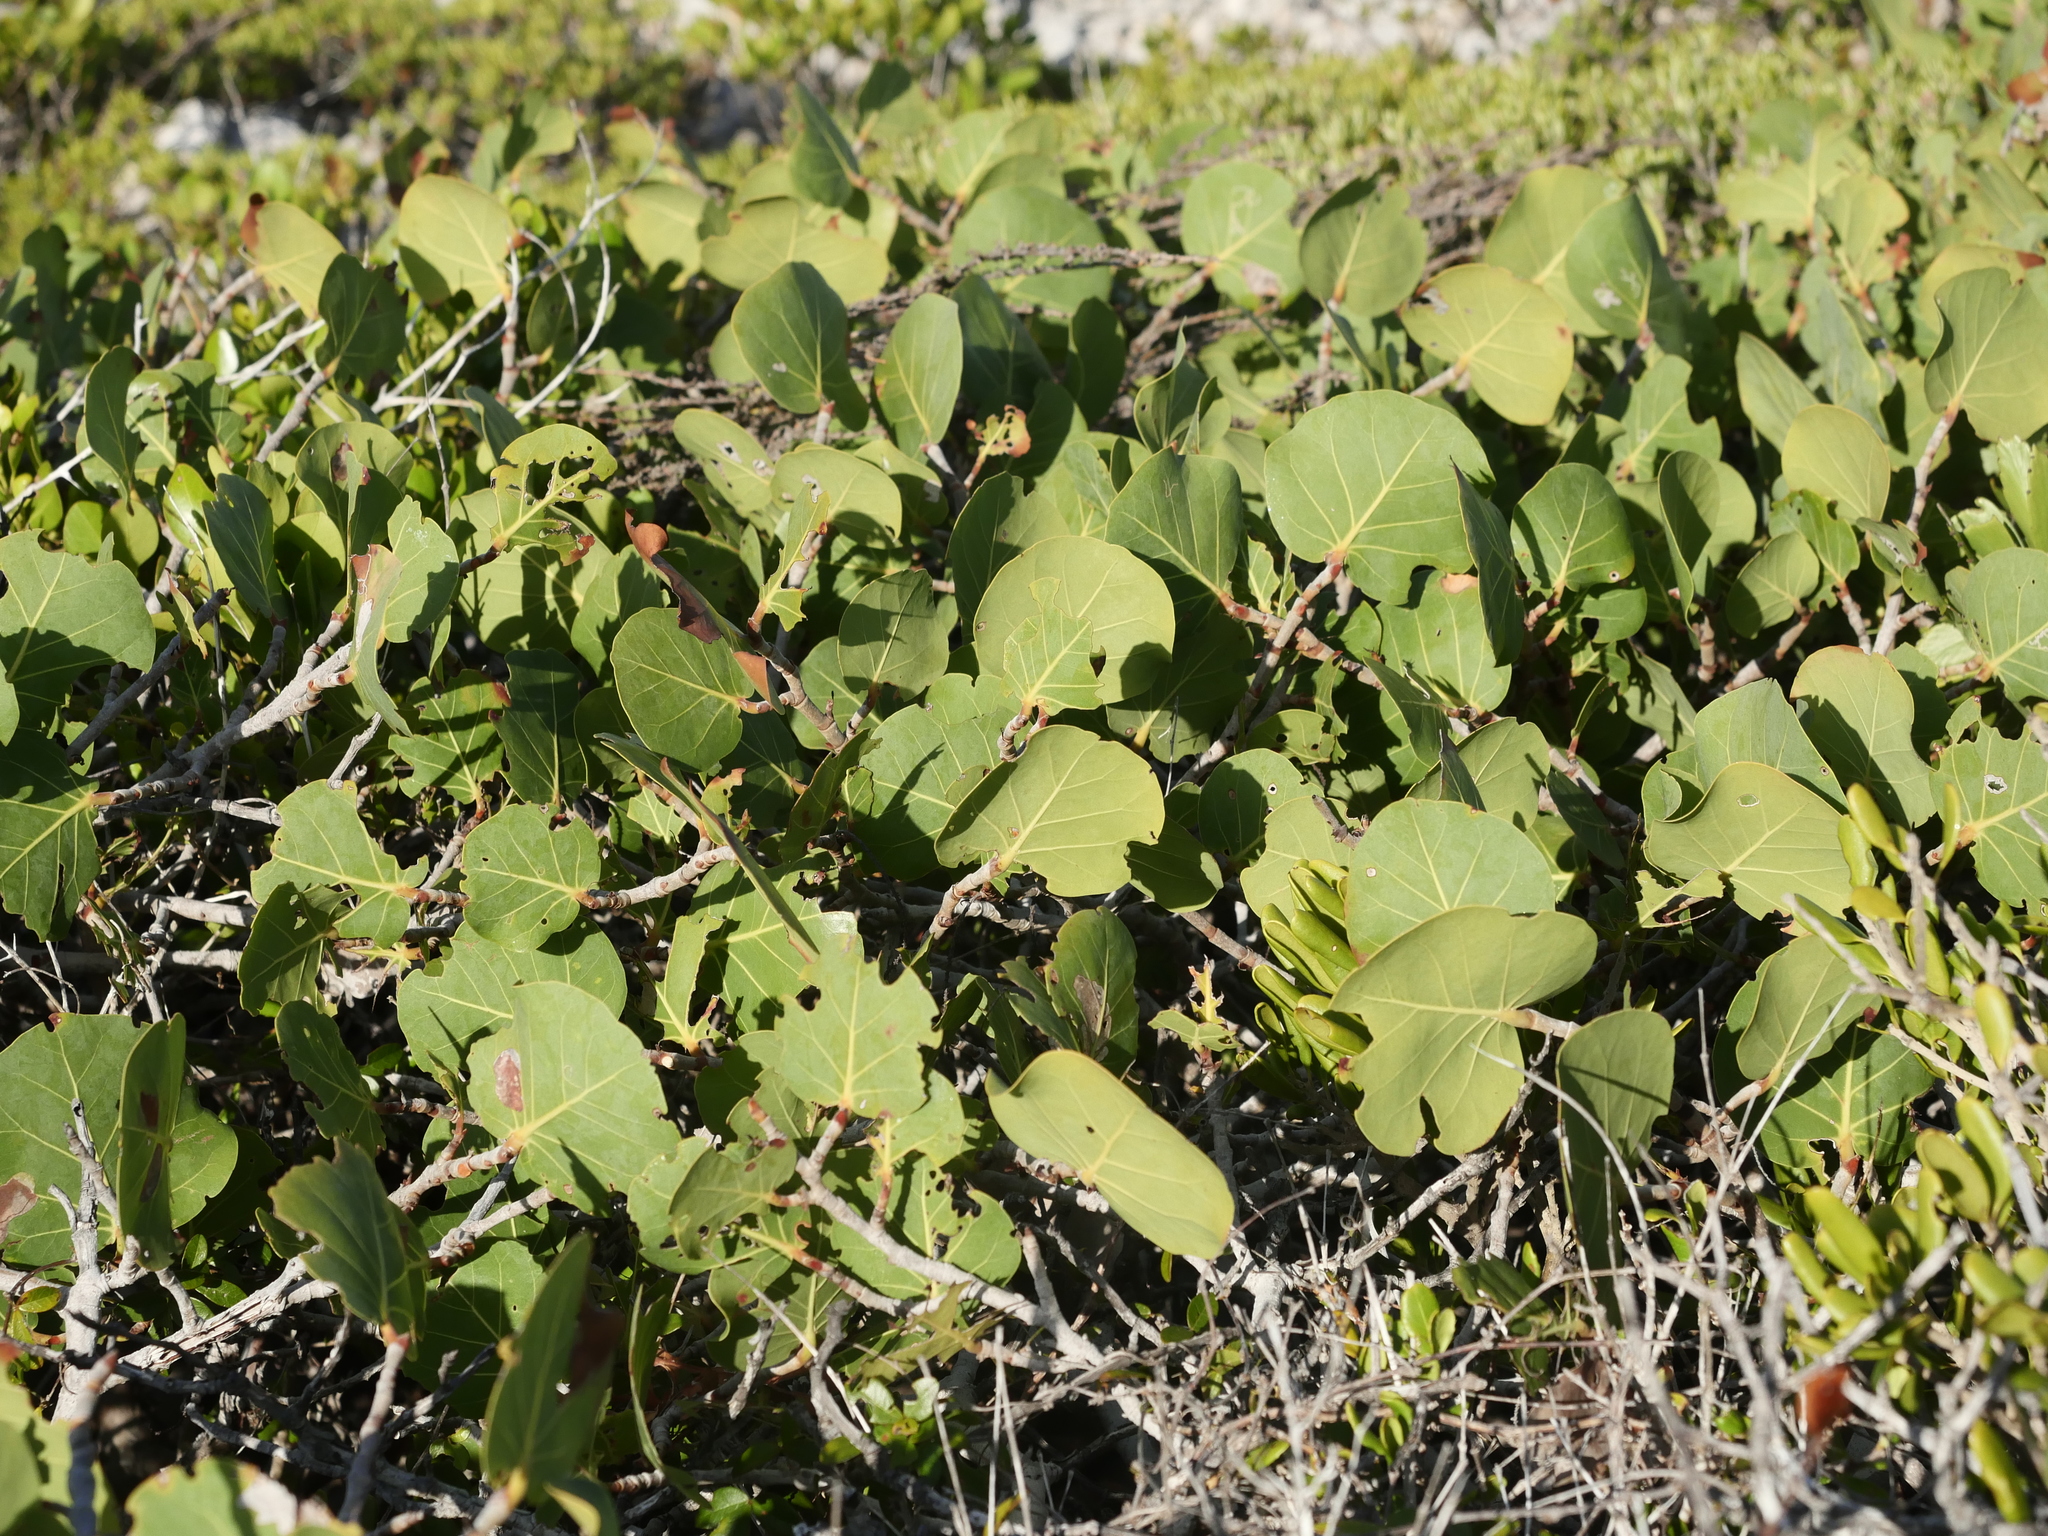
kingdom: Plantae
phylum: Tracheophyta
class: Magnoliopsida
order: Caryophyllales
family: Polygonaceae
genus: Coccoloba
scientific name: Coccoloba uvifera
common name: Seagrape
